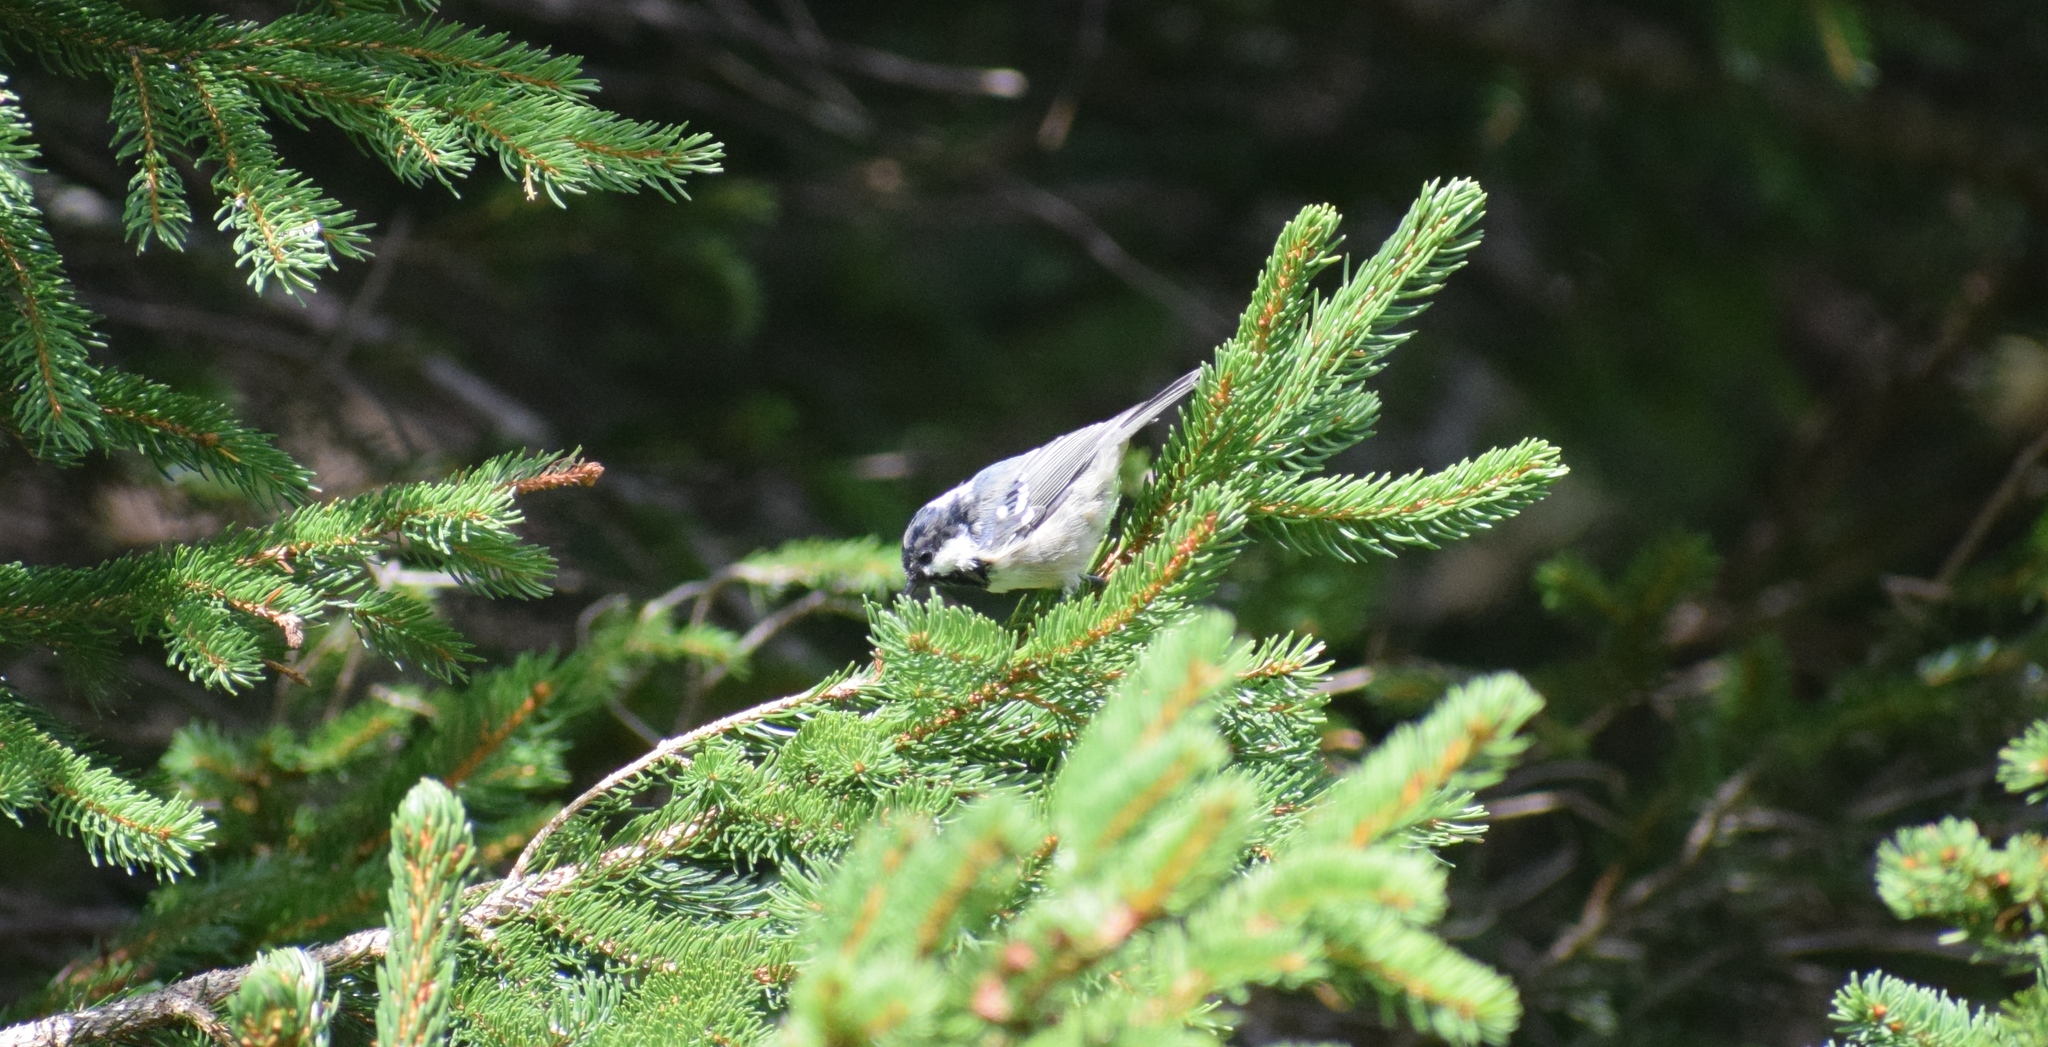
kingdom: Animalia
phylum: Chordata
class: Aves
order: Passeriformes
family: Paridae
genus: Periparus
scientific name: Periparus ater
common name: Coal tit
